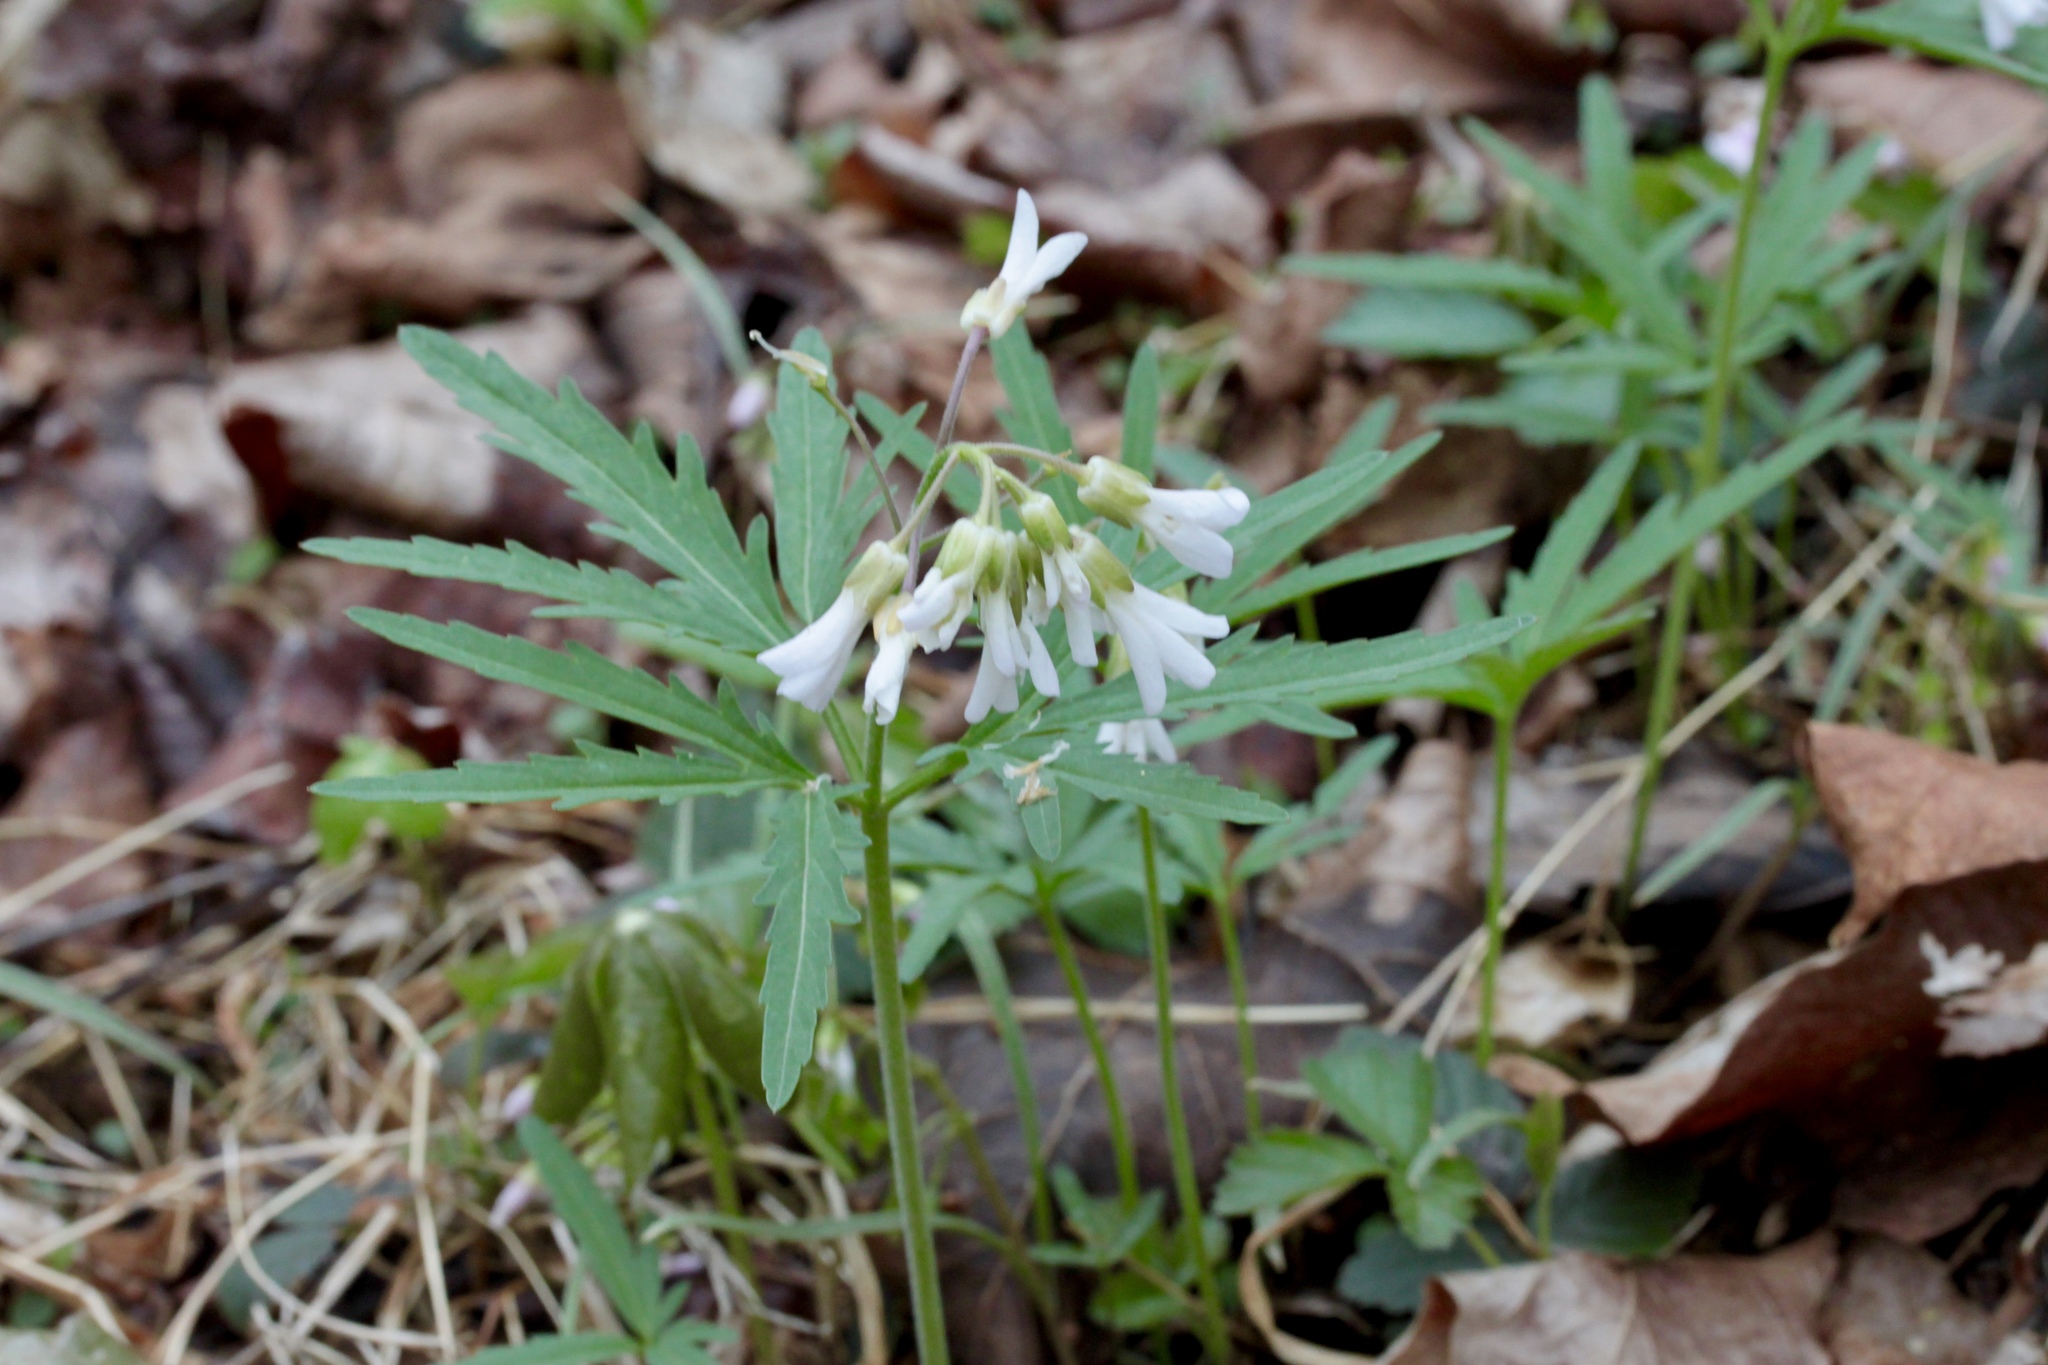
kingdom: Plantae
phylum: Tracheophyta
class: Magnoliopsida
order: Brassicales
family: Brassicaceae
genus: Cardamine
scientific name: Cardamine concatenata
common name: Cut-leaf toothcup
